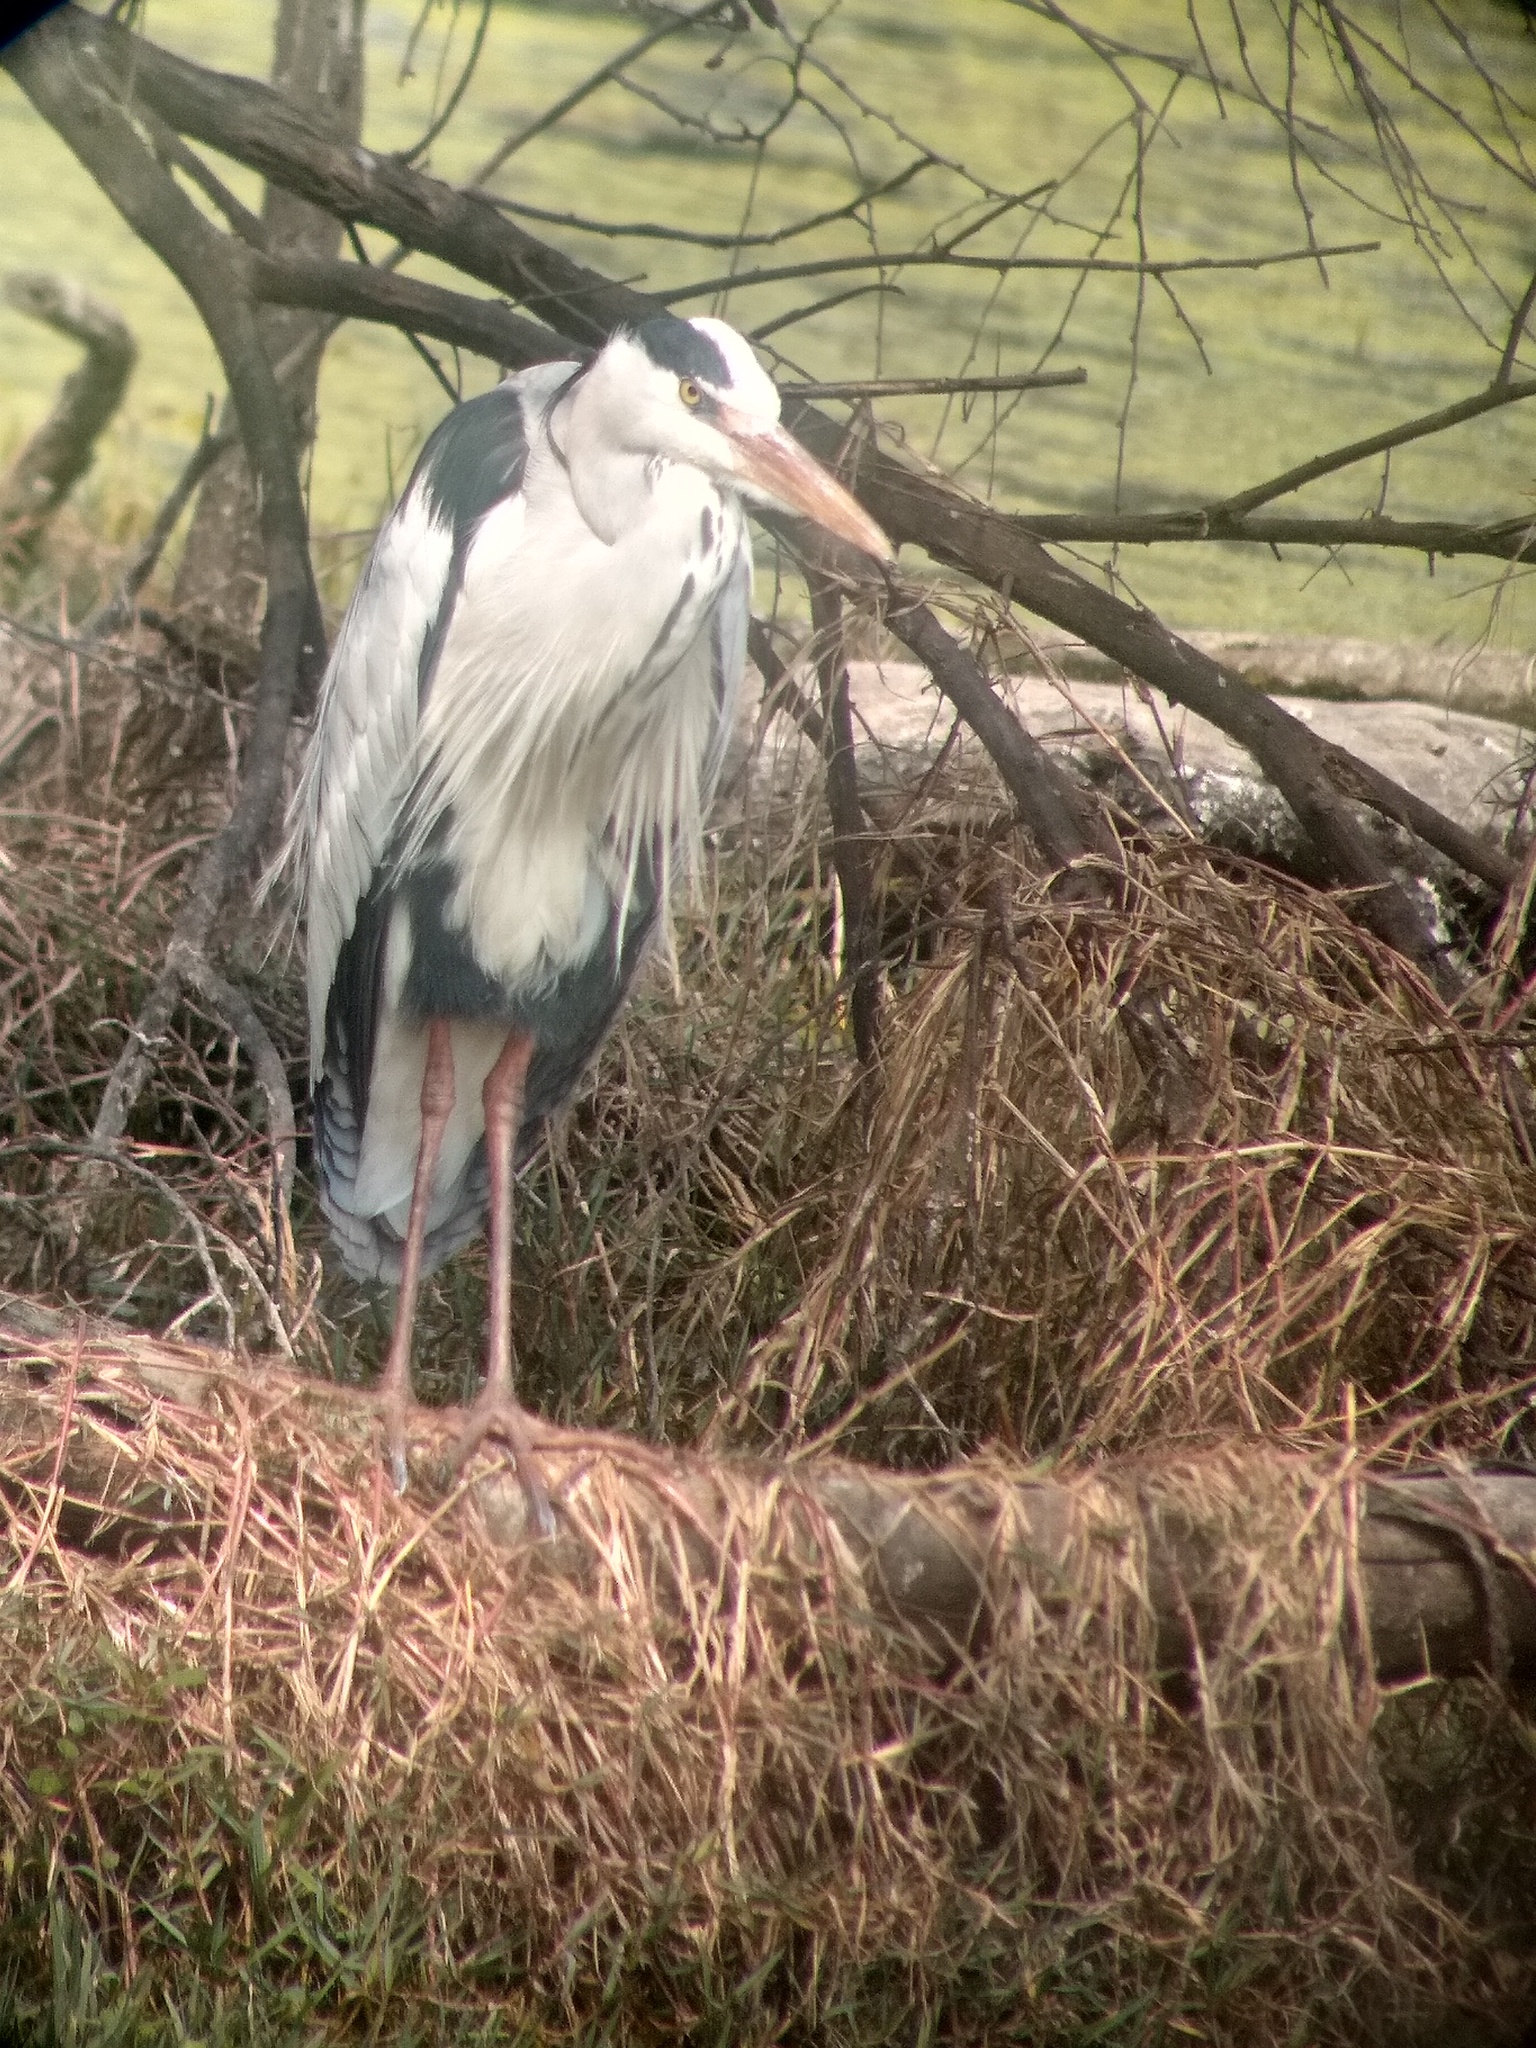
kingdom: Animalia
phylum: Chordata
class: Aves
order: Pelecaniformes
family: Ardeidae
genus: Ardea
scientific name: Ardea cinerea
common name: Grey heron
